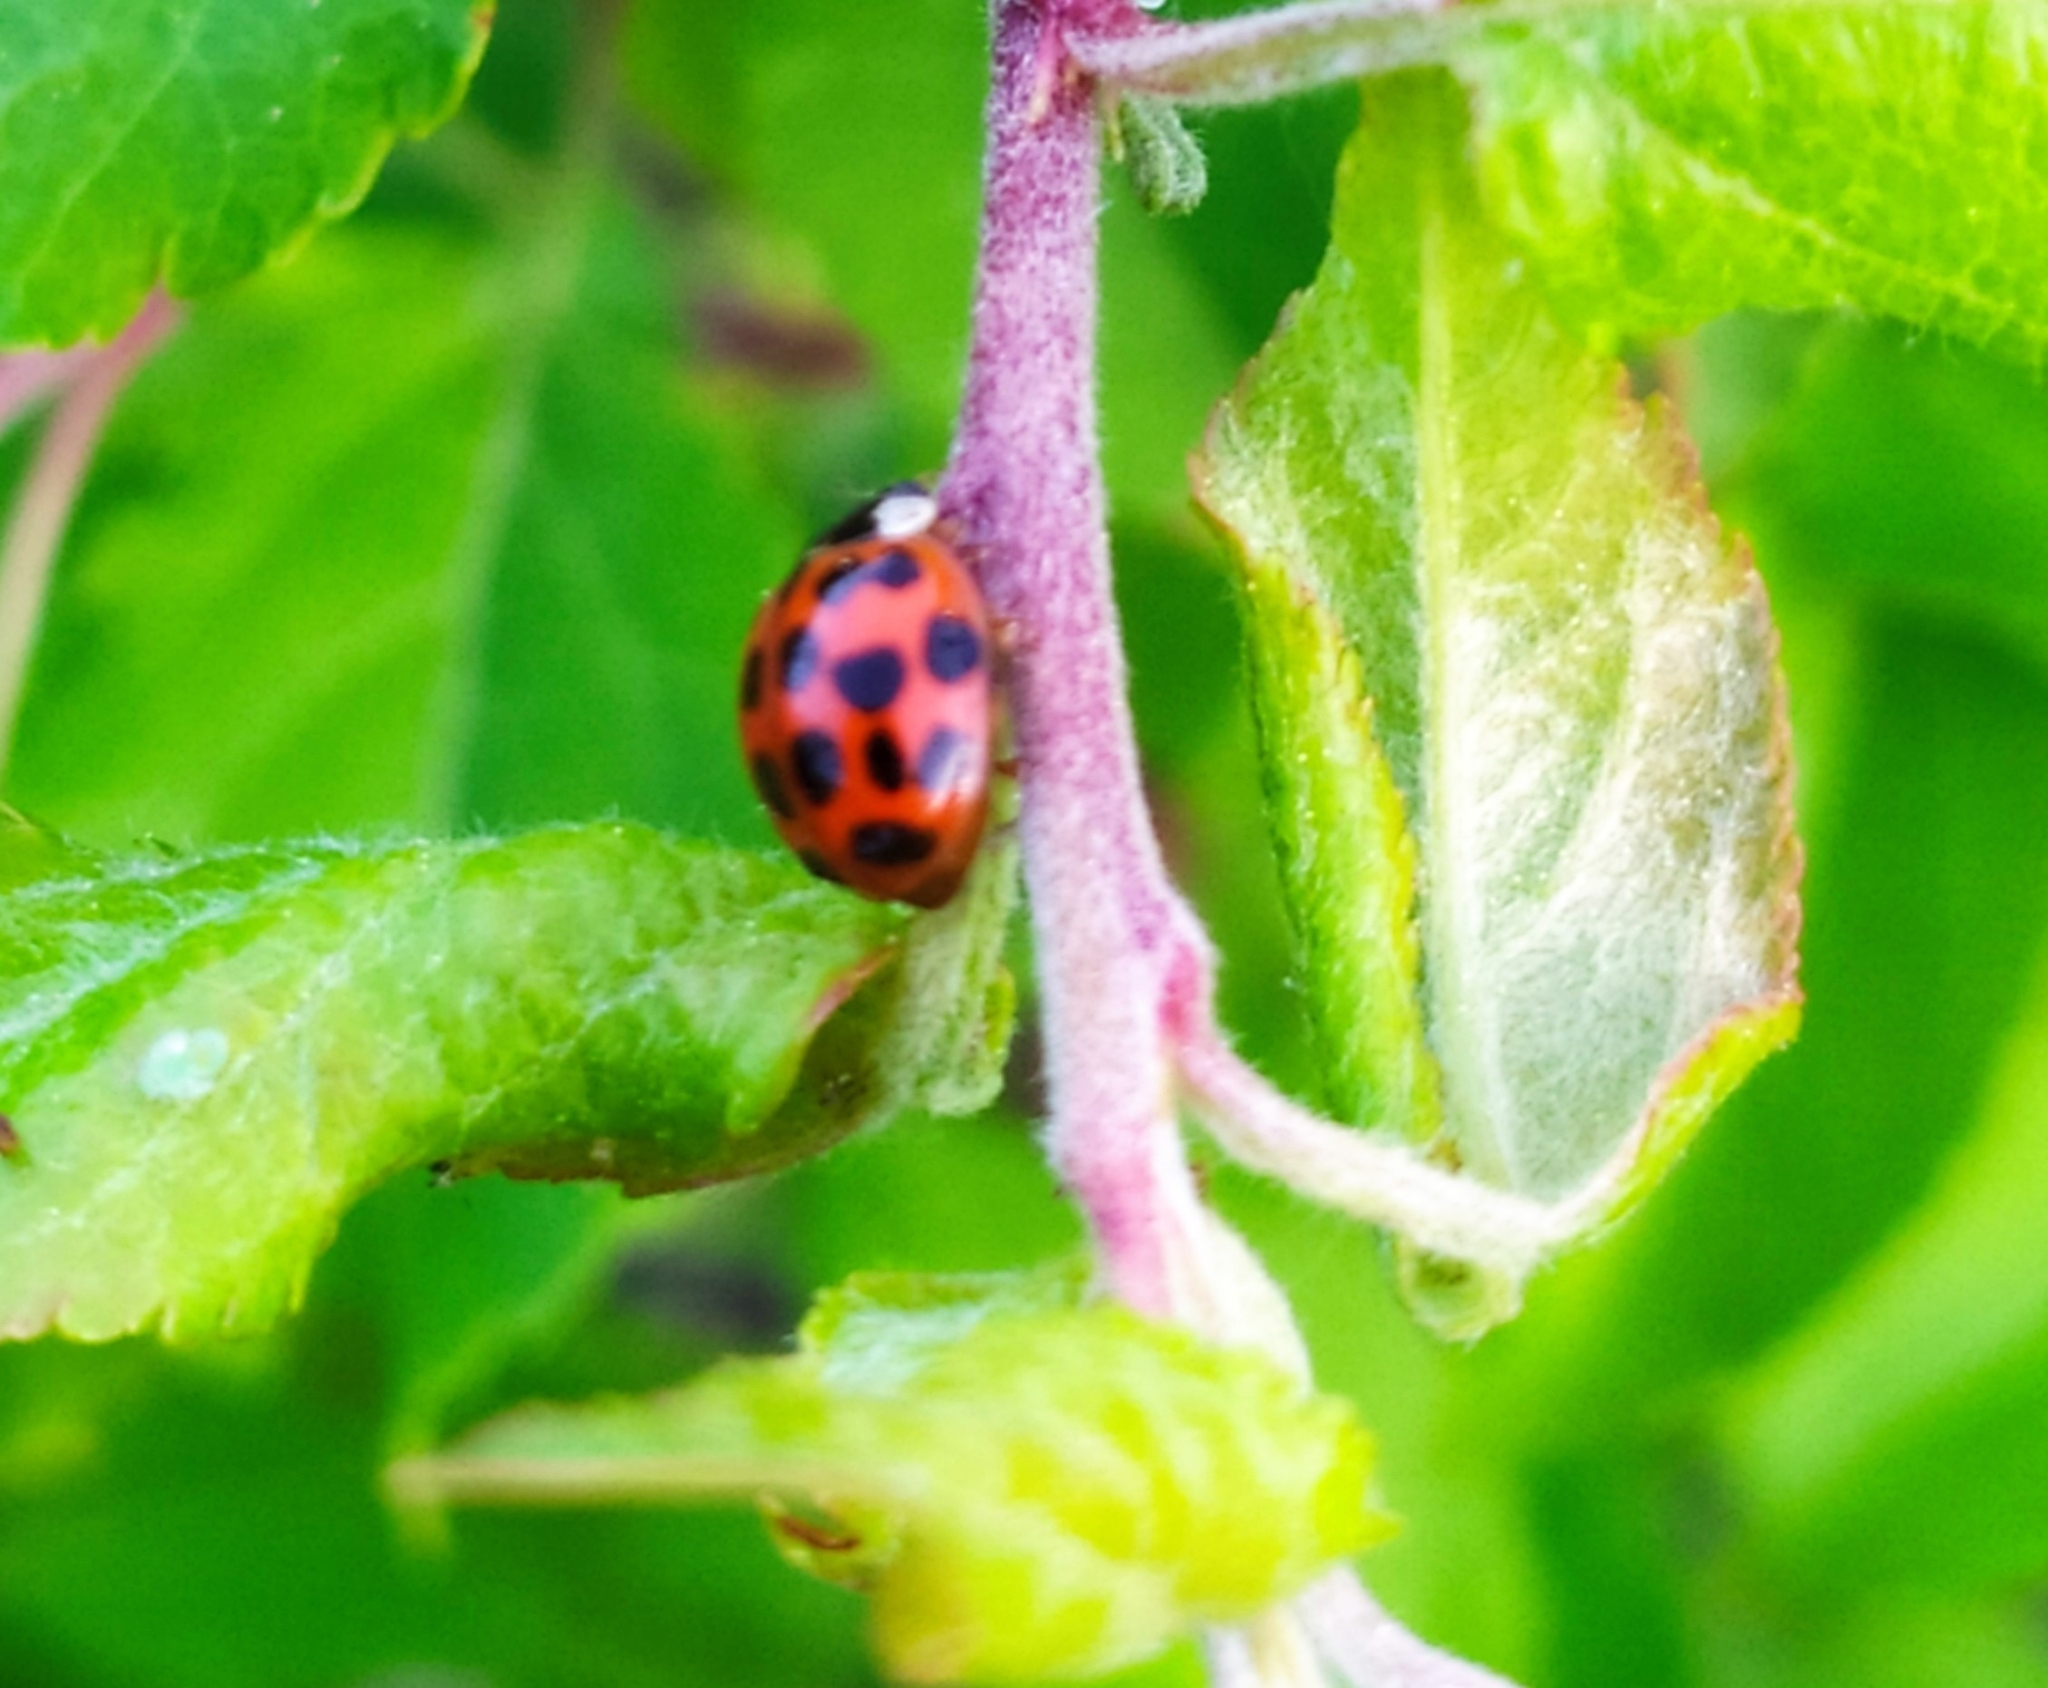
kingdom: Animalia
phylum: Arthropoda
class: Insecta
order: Coleoptera
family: Coccinellidae
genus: Harmonia
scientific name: Harmonia axyridis
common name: Harlequin ladybird
